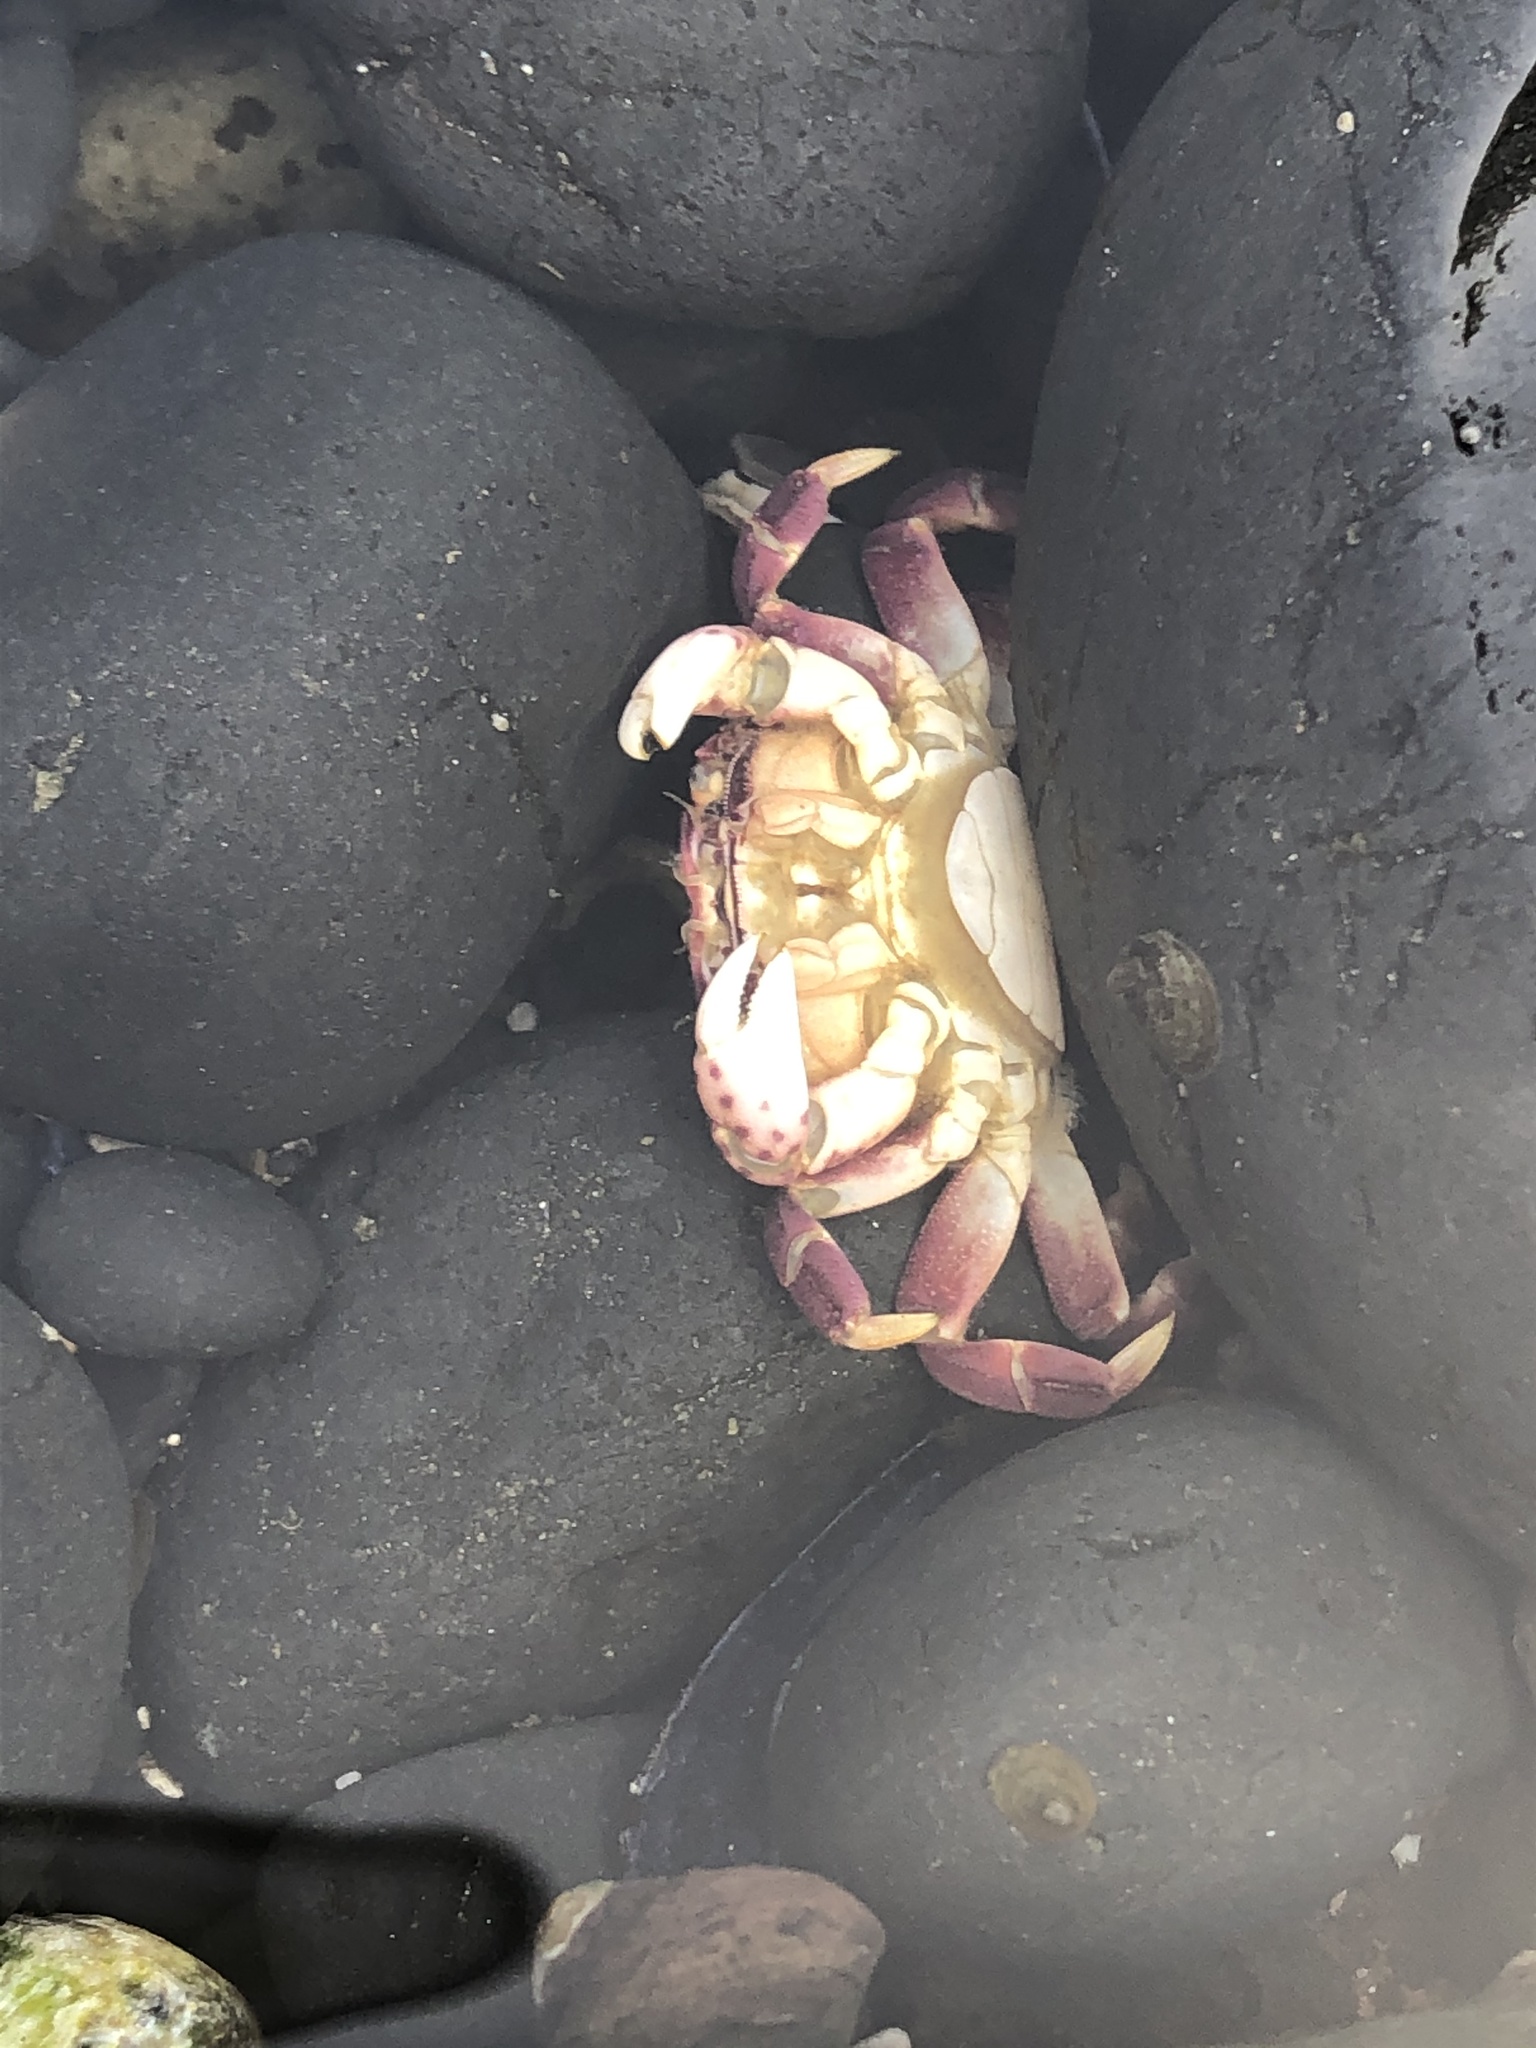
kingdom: Animalia
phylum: Arthropoda
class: Malacostraca
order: Decapoda
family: Varunidae
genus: Hemigrapsus
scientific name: Hemigrapsus nudus
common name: Purple shore crab
